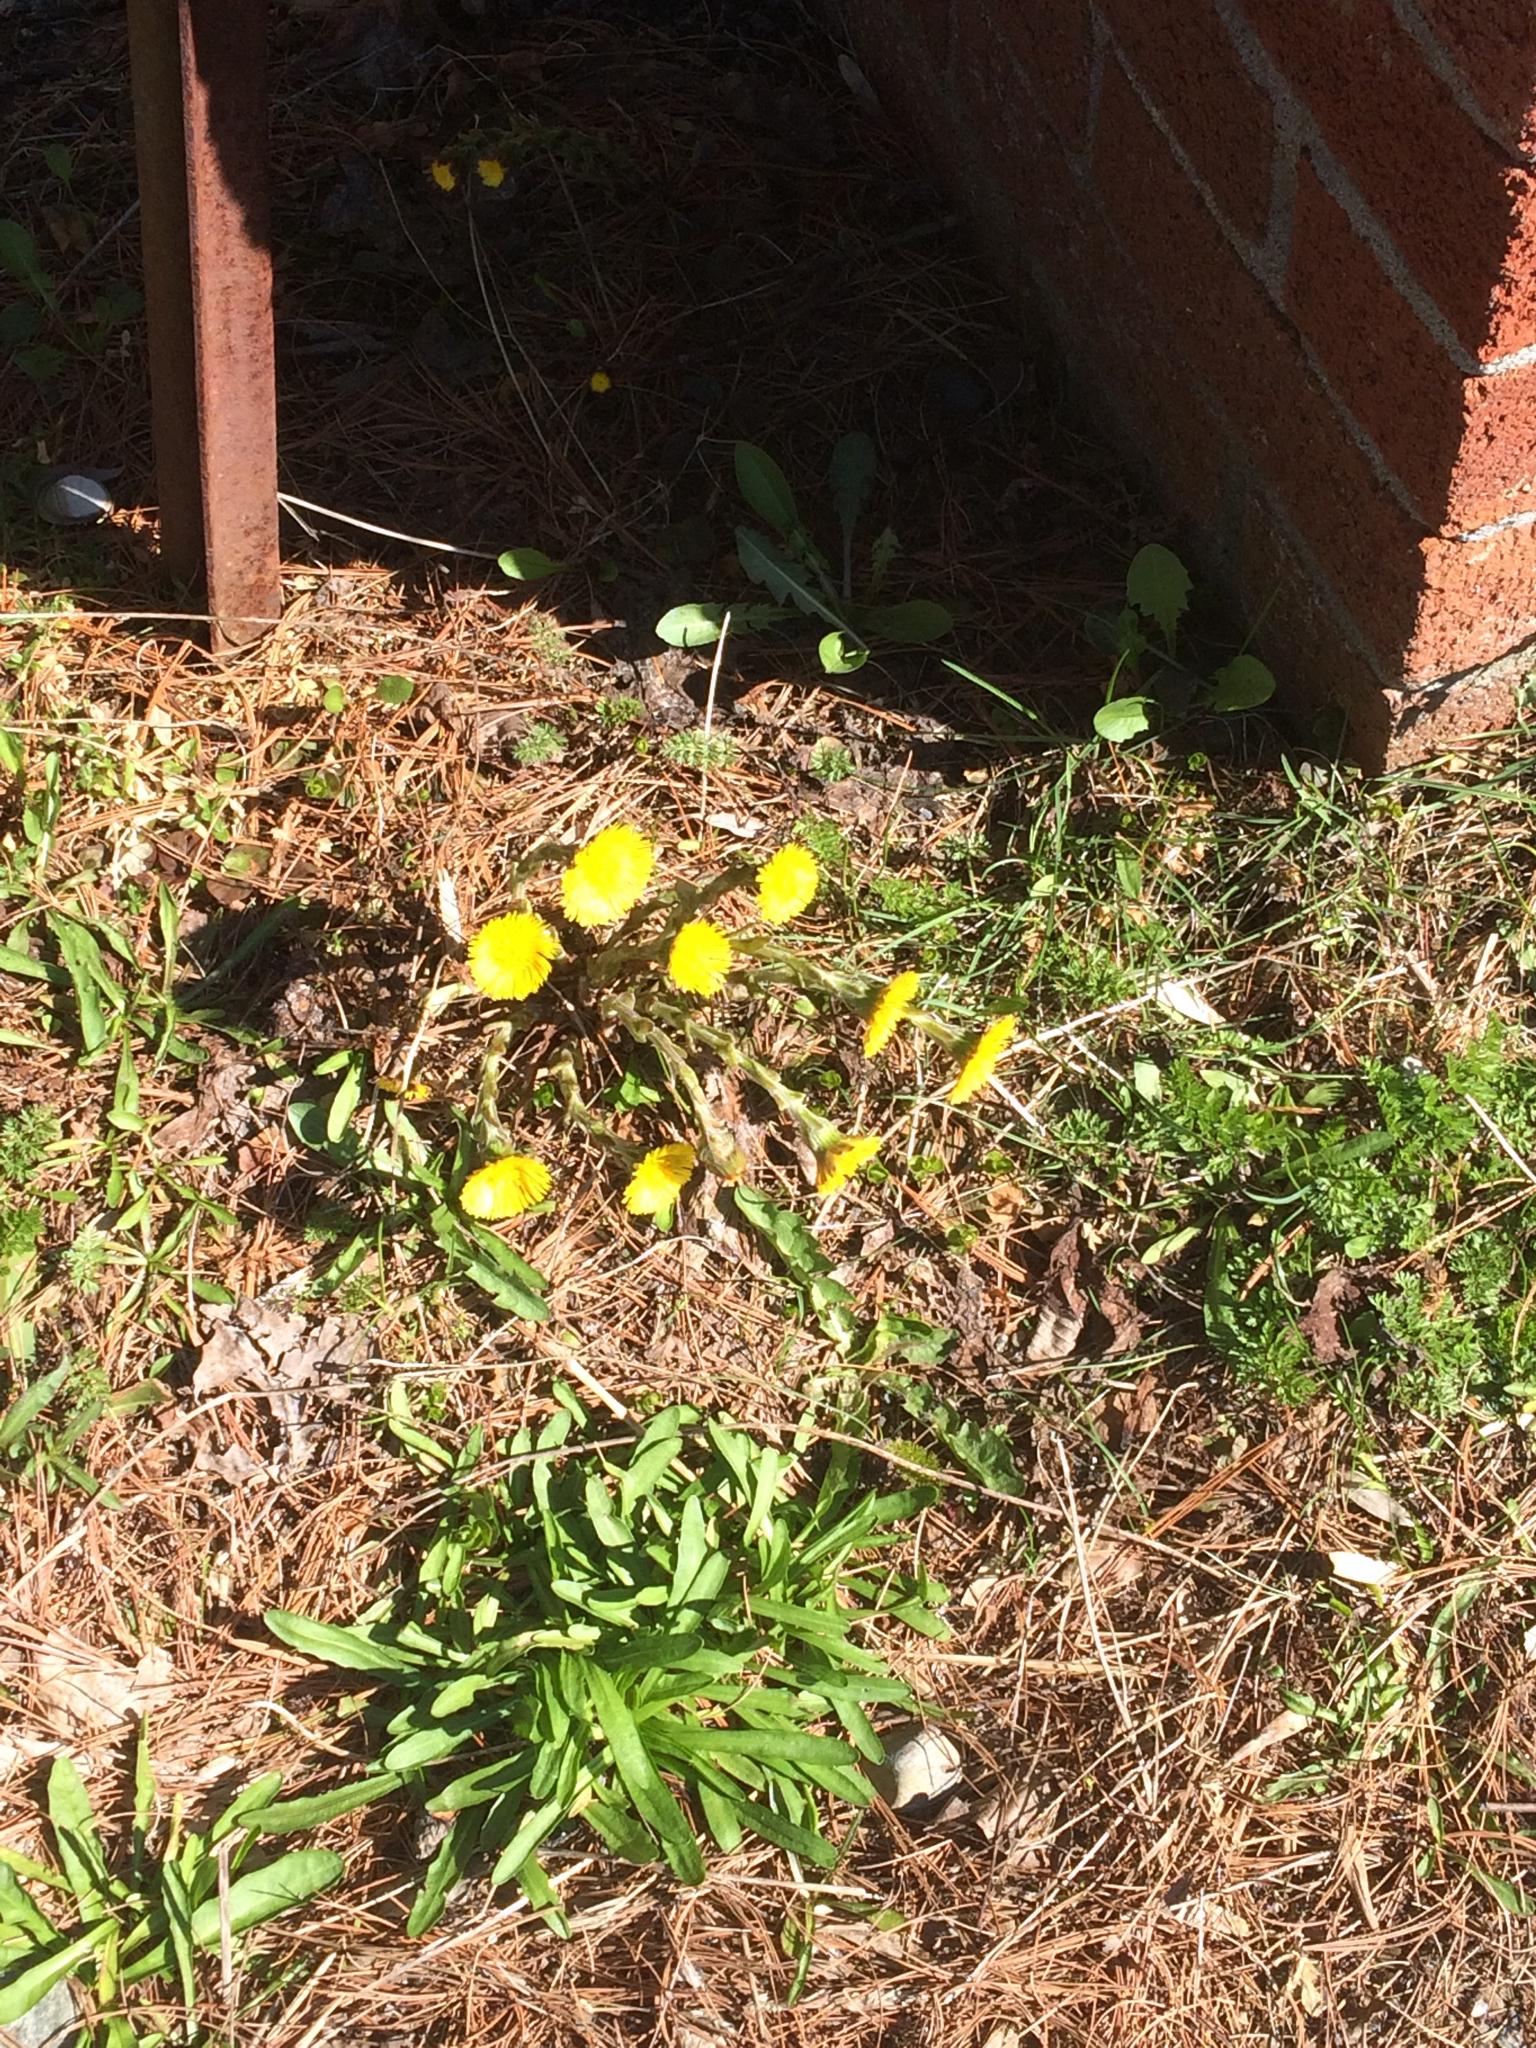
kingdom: Plantae
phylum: Tracheophyta
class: Magnoliopsida
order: Asterales
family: Asteraceae
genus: Tussilago
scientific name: Tussilago farfara
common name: Coltsfoot
